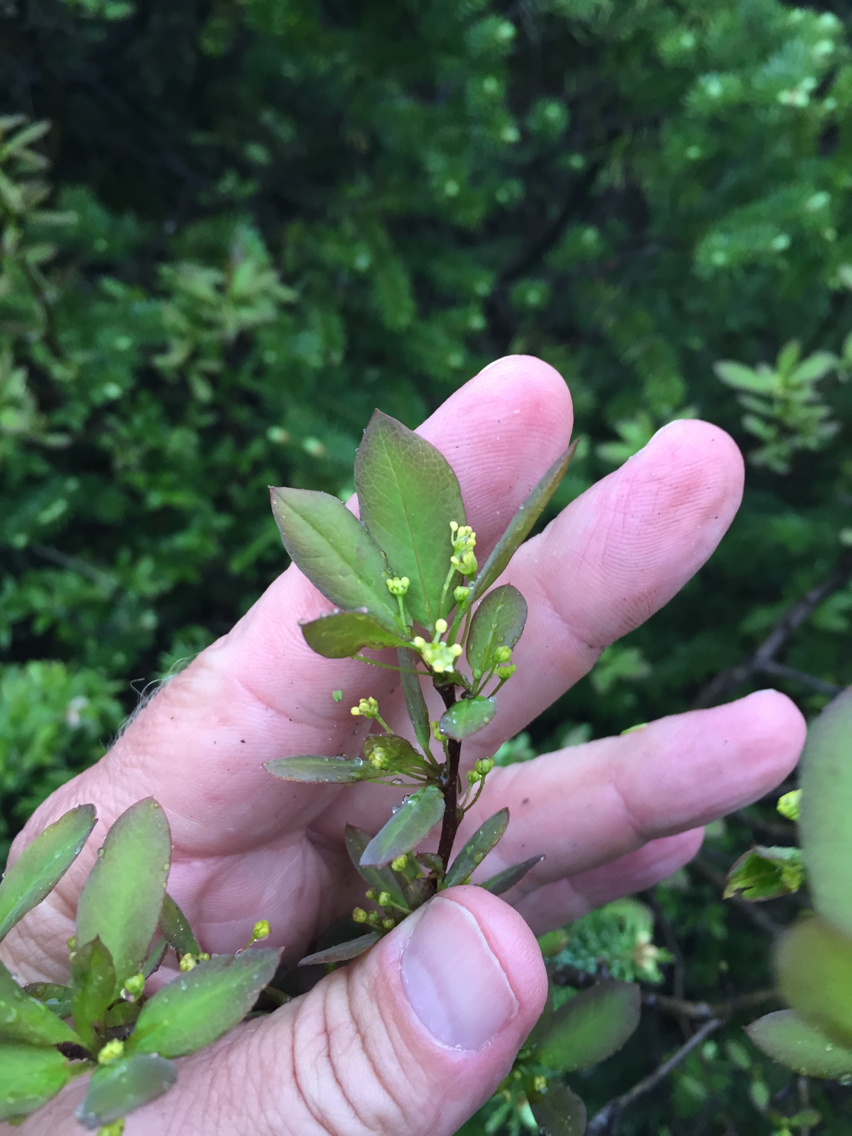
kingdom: Plantae
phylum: Tracheophyta
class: Magnoliopsida
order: Aquifoliales
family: Aquifoliaceae
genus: Ilex
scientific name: Ilex mucronata
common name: Catberry
